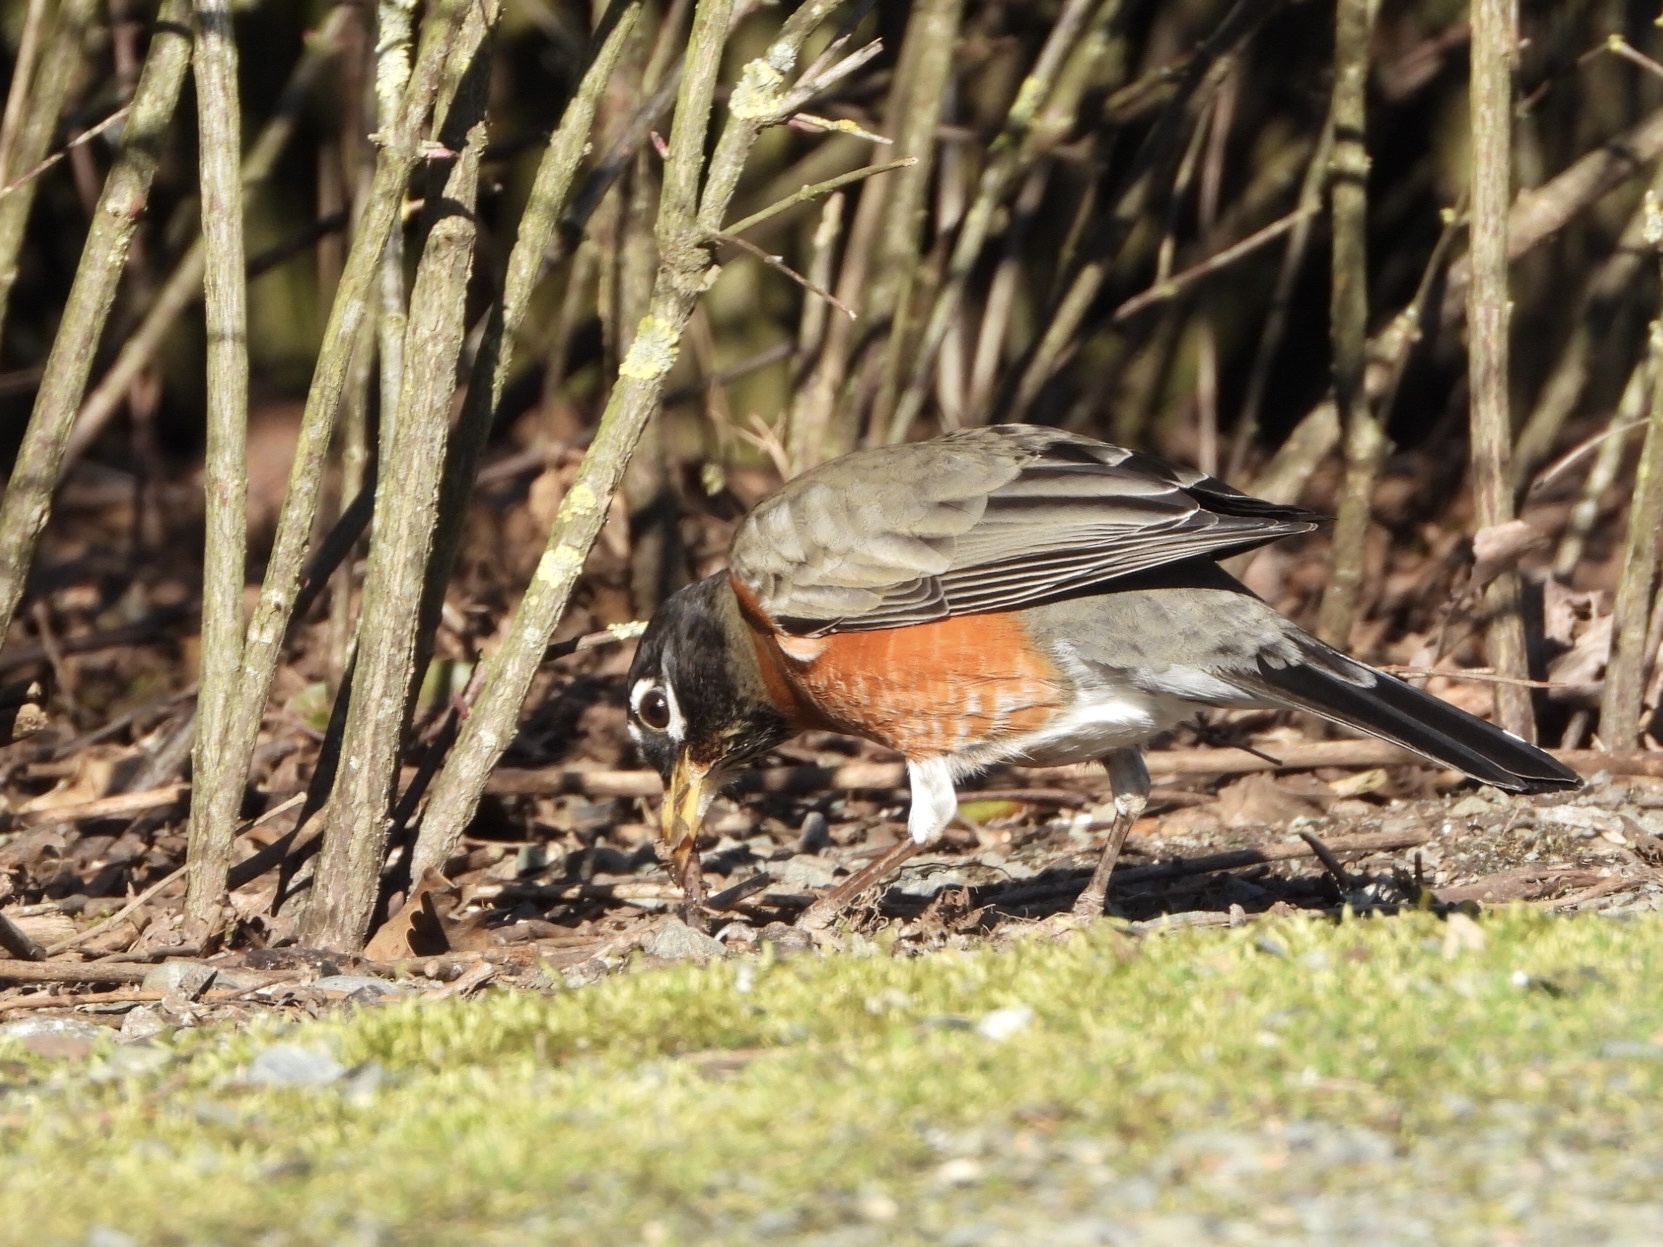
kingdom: Animalia
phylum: Chordata
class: Aves
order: Passeriformes
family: Turdidae
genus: Turdus
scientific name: Turdus migratorius
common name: American robin
